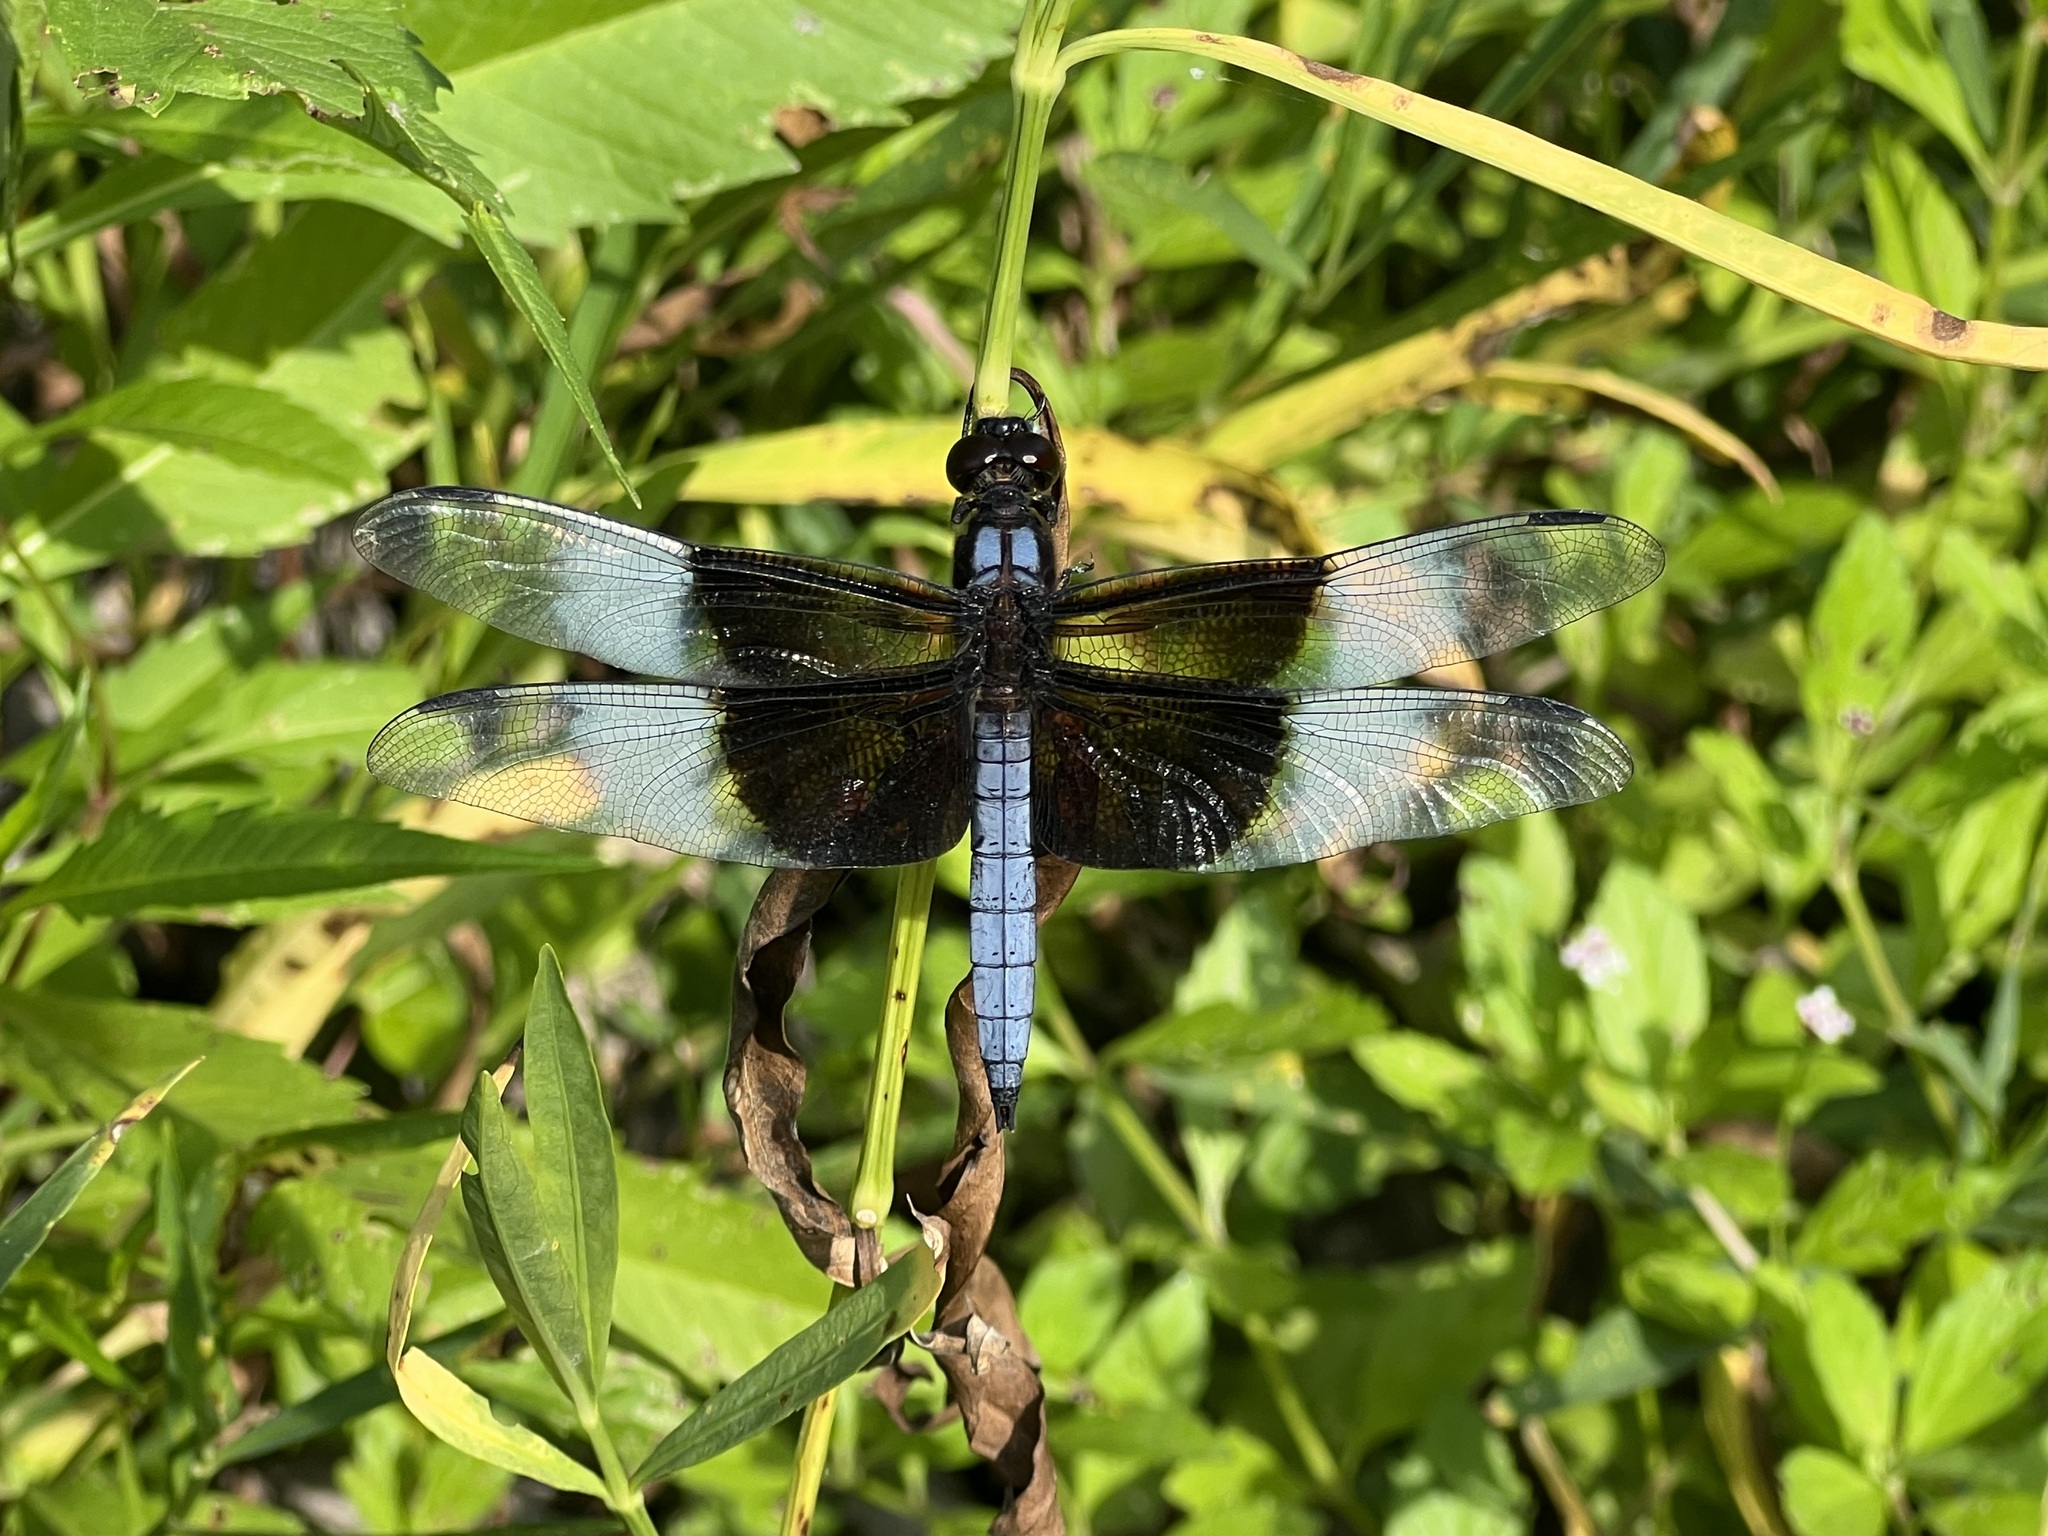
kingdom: Animalia
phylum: Arthropoda
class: Insecta
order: Odonata
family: Libellulidae
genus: Libellula
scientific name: Libellula luctuosa
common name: Widow skimmer
